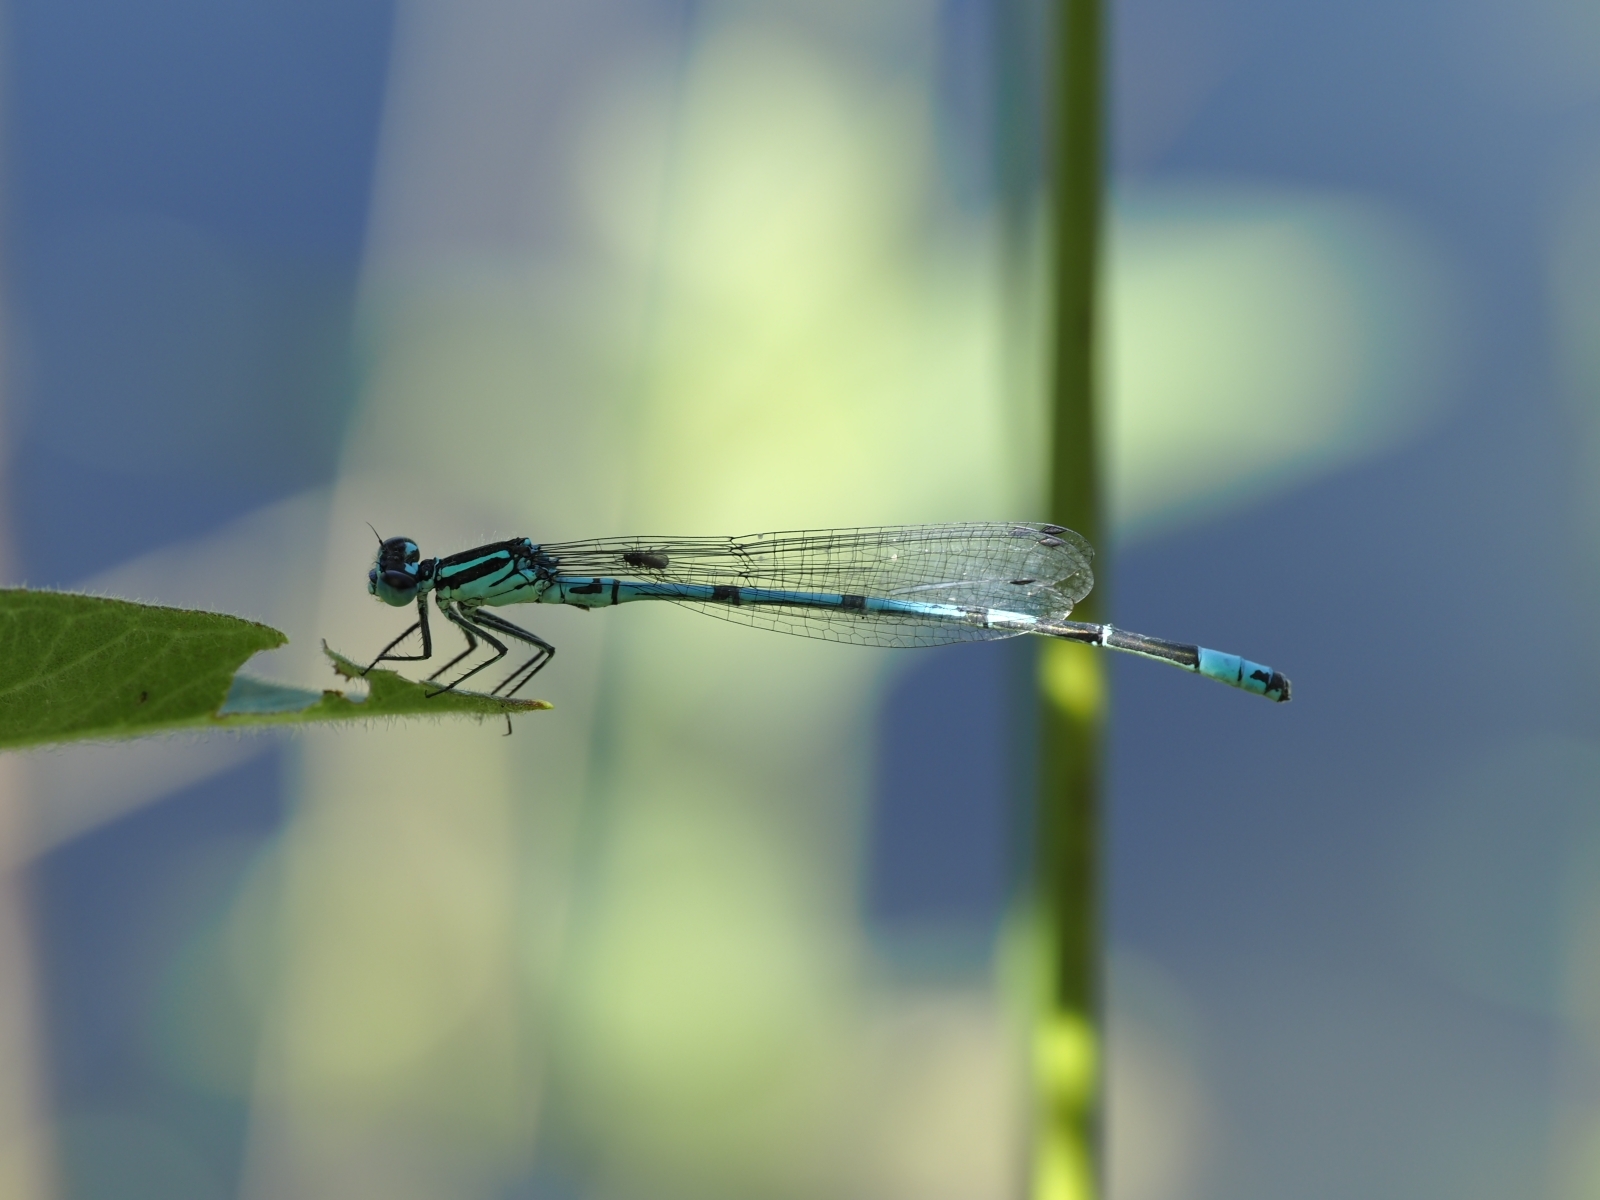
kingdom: Animalia
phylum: Arthropoda
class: Insecta
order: Odonata
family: Coenagrionidae
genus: Coenagrion
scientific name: Coenagrion puella
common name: Azure damselfly
